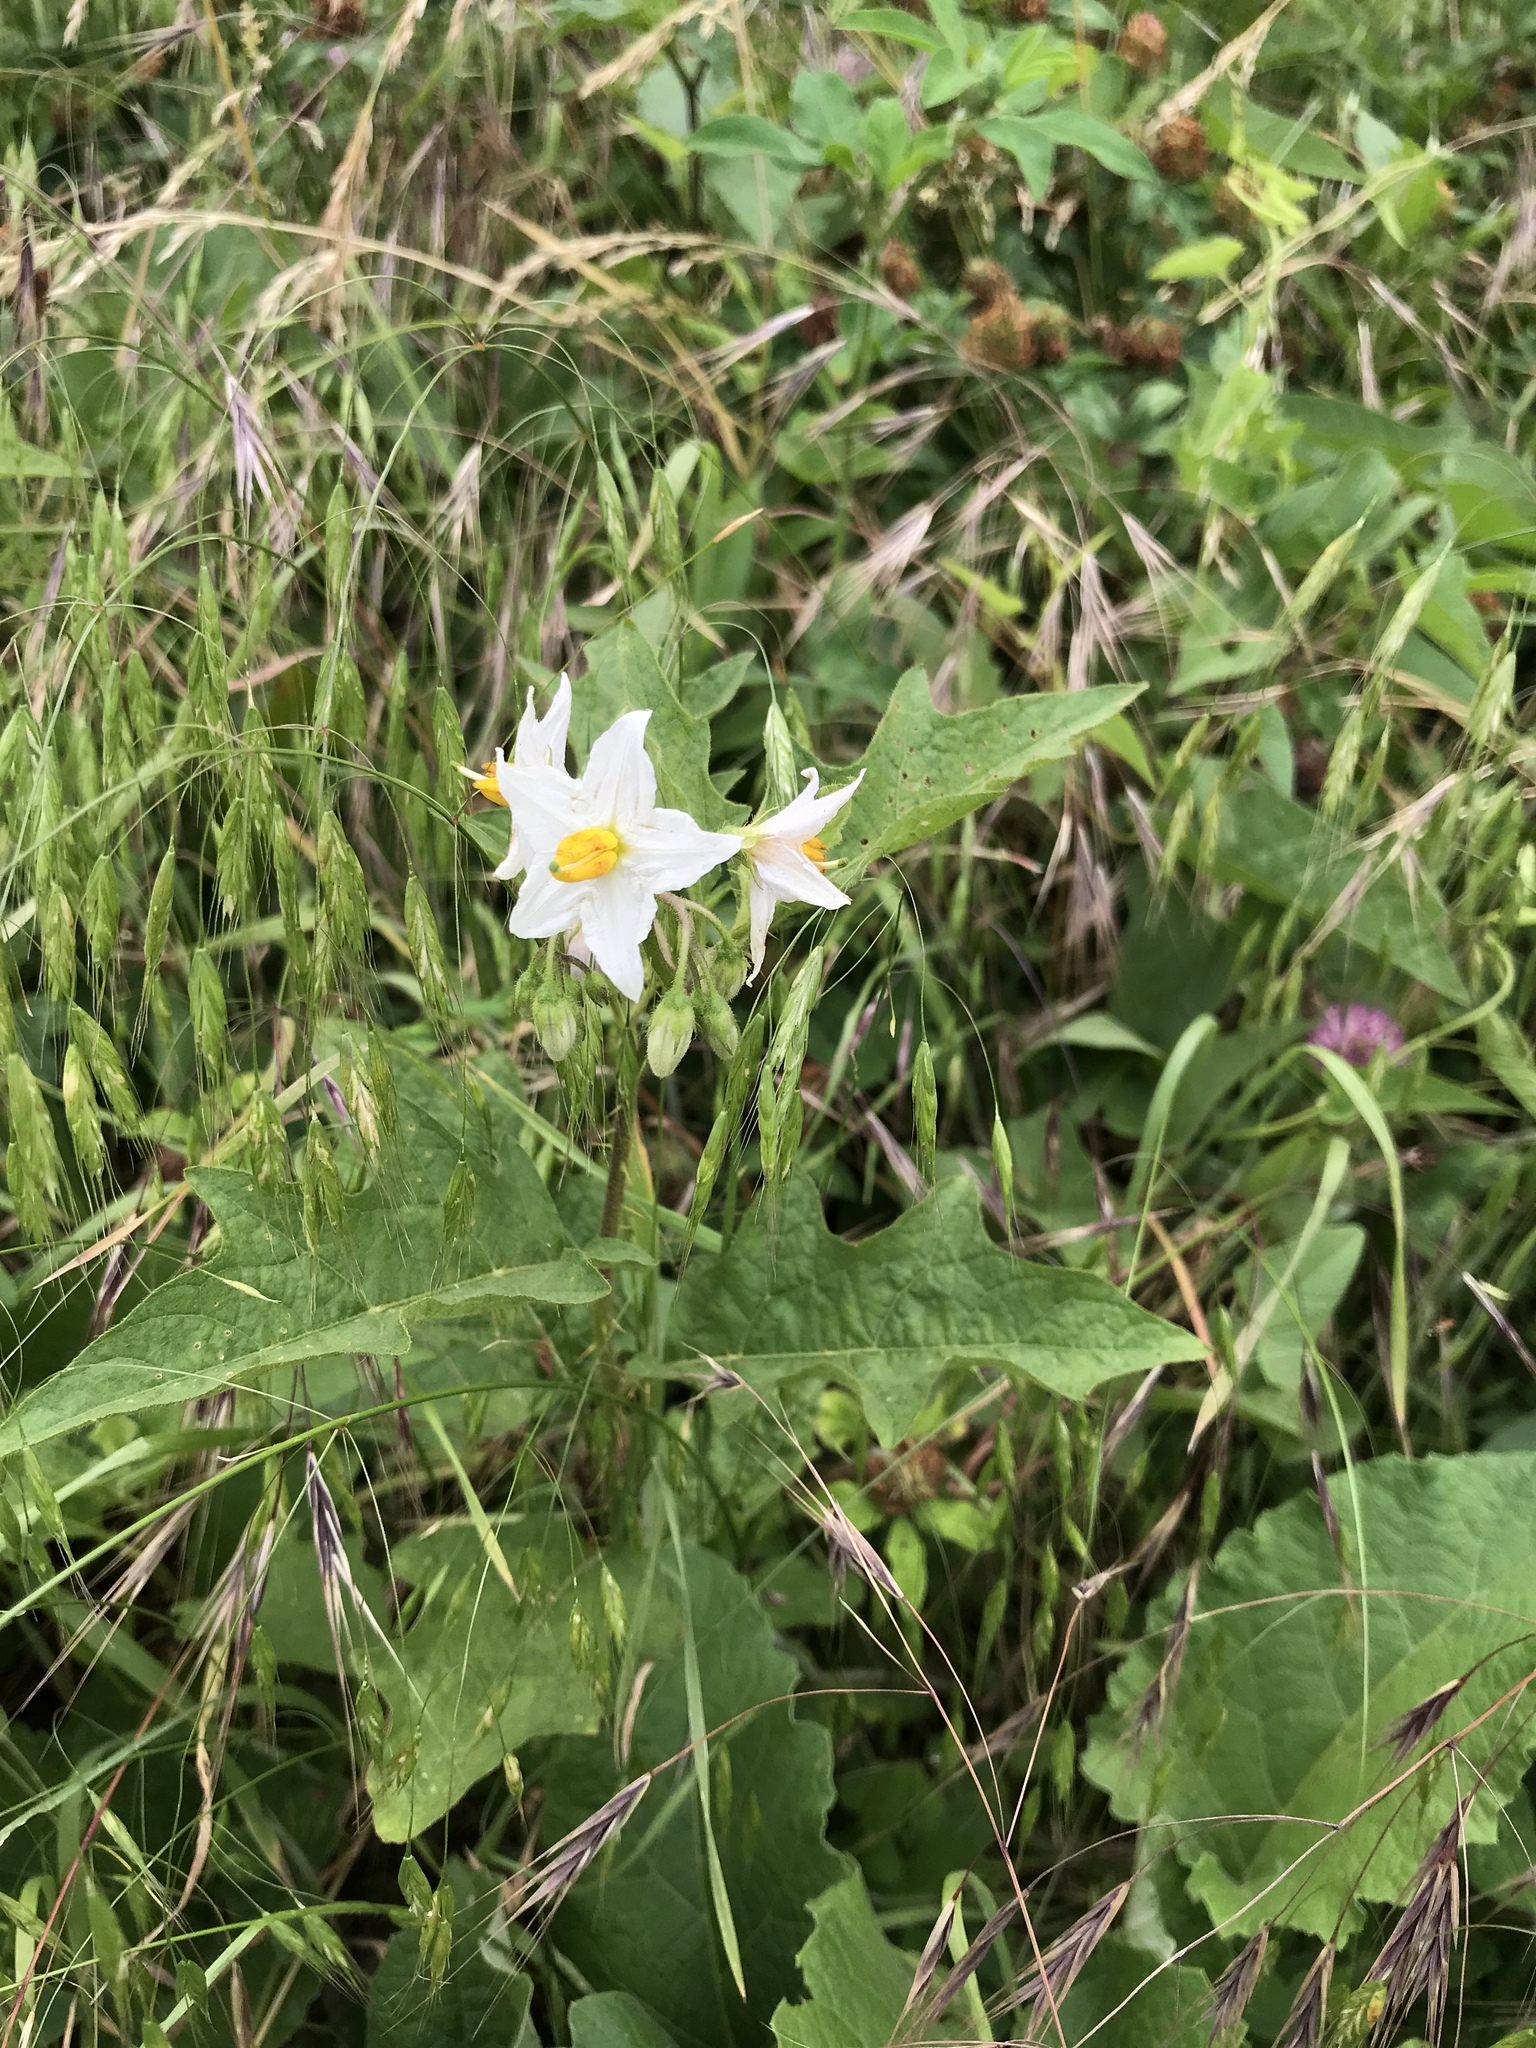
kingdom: Plantae
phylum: Tracheophyta
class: Magnoliopsida
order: Solanales
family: Solanaceae
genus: Solanum
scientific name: Solanum carolinense
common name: Horse-nettle
